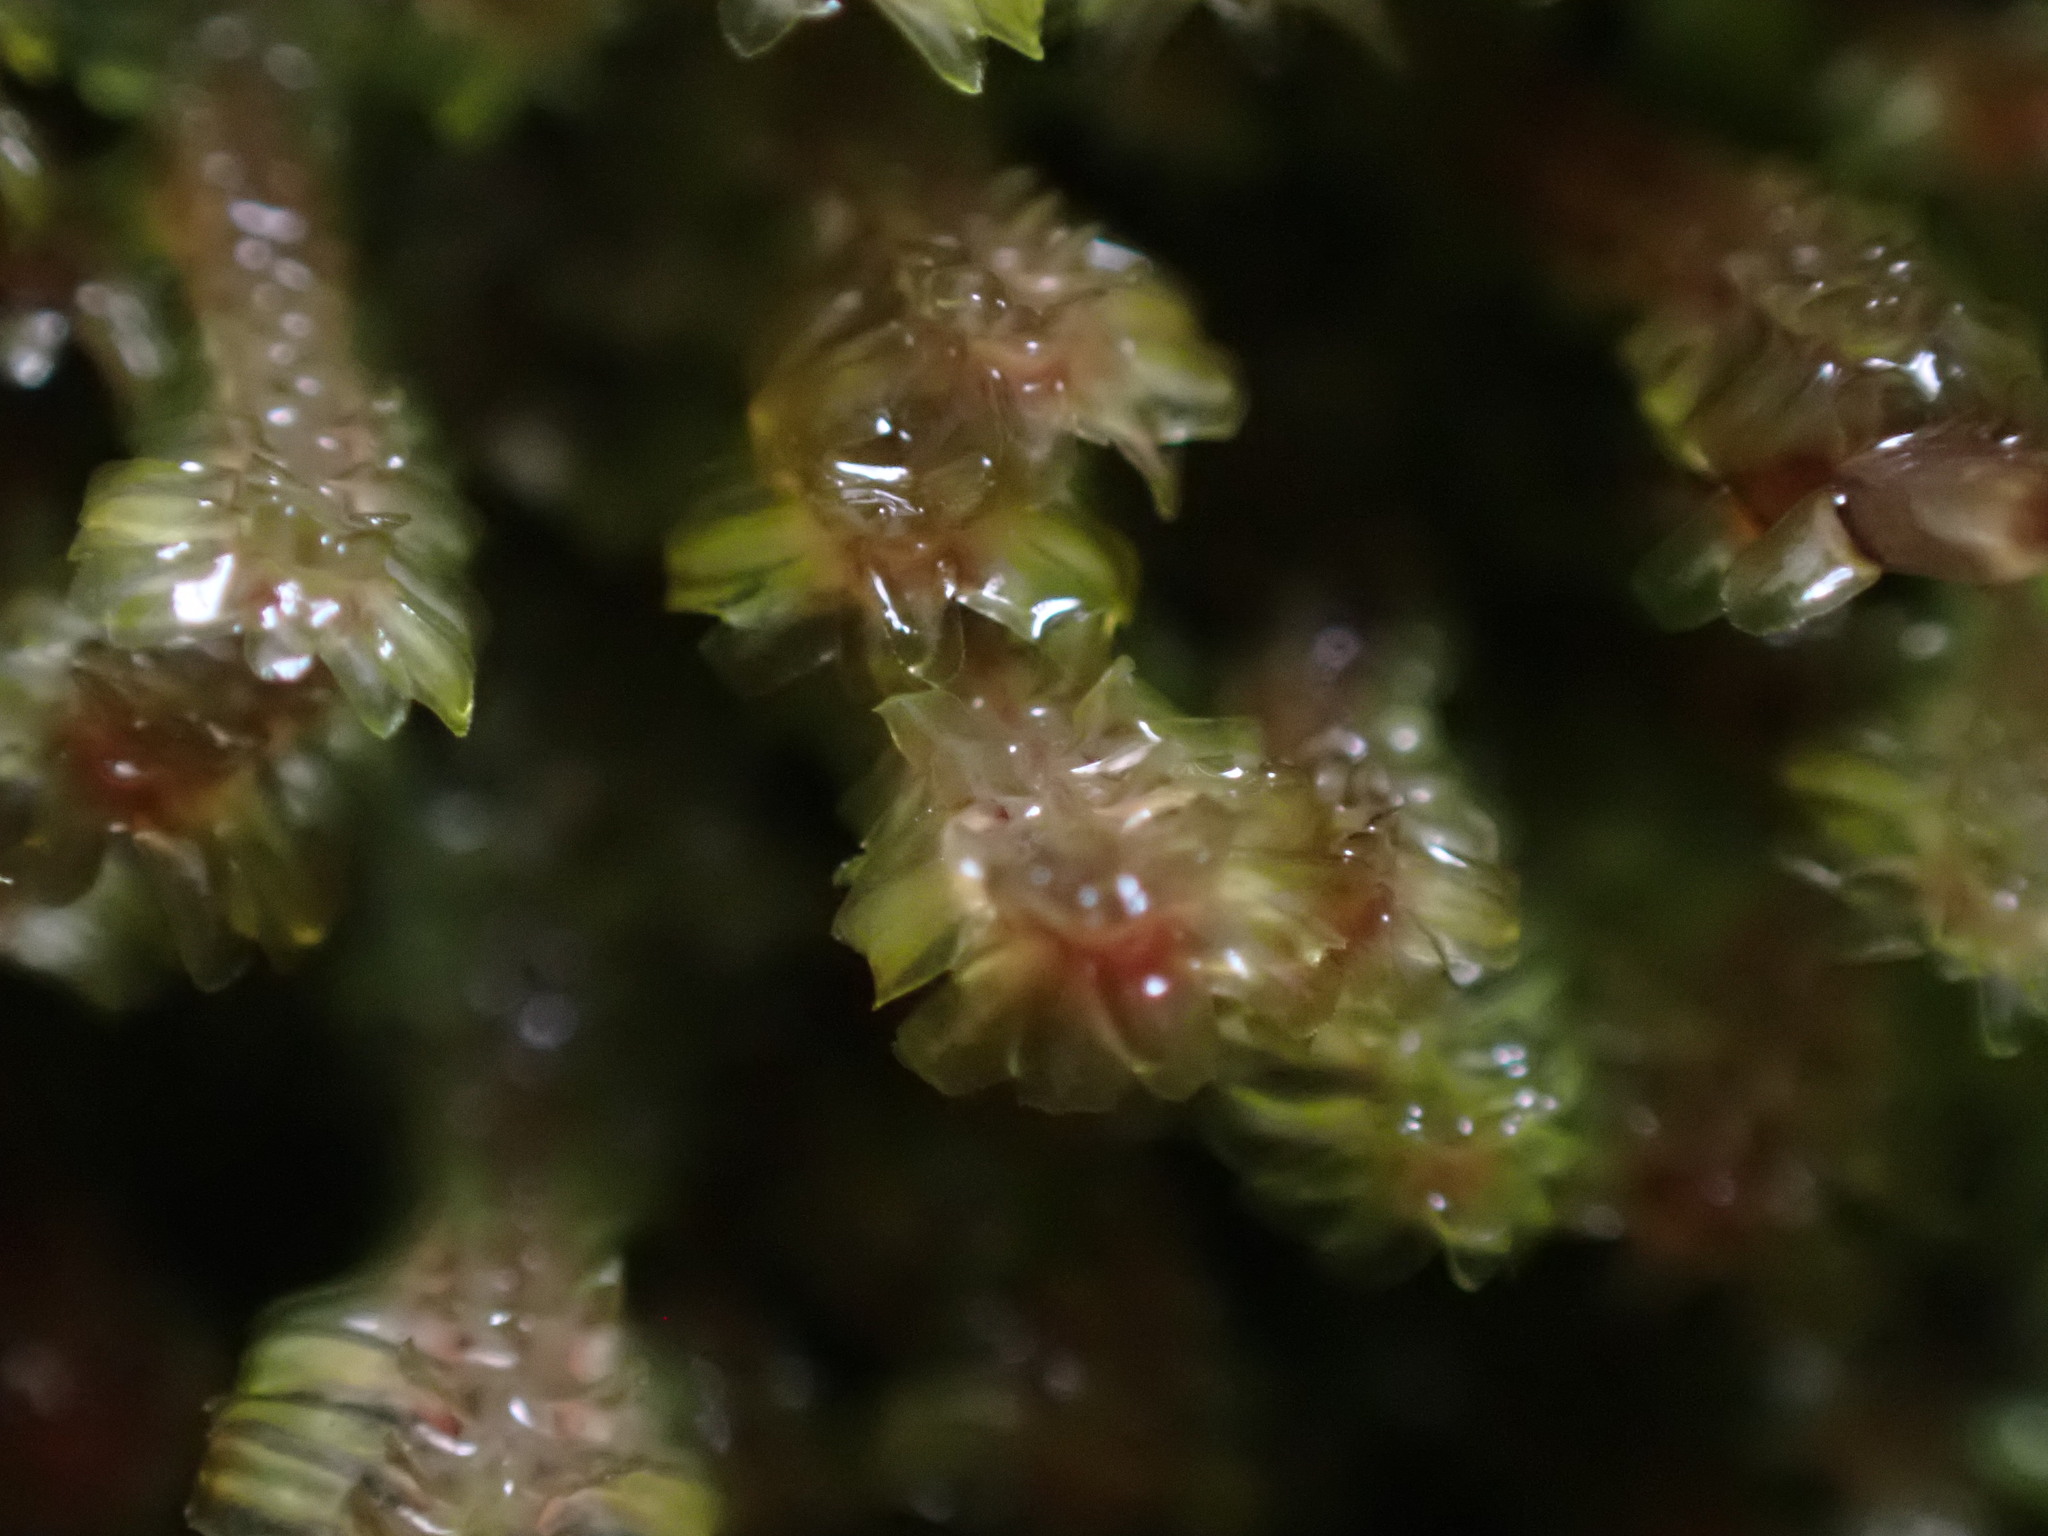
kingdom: Plantae
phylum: Marchantiophyta
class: Jungermanniopsida
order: Jungermanniales
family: Scapaniaceae
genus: Diplophyllum
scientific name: Diplophyllum albicans
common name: White earwort
